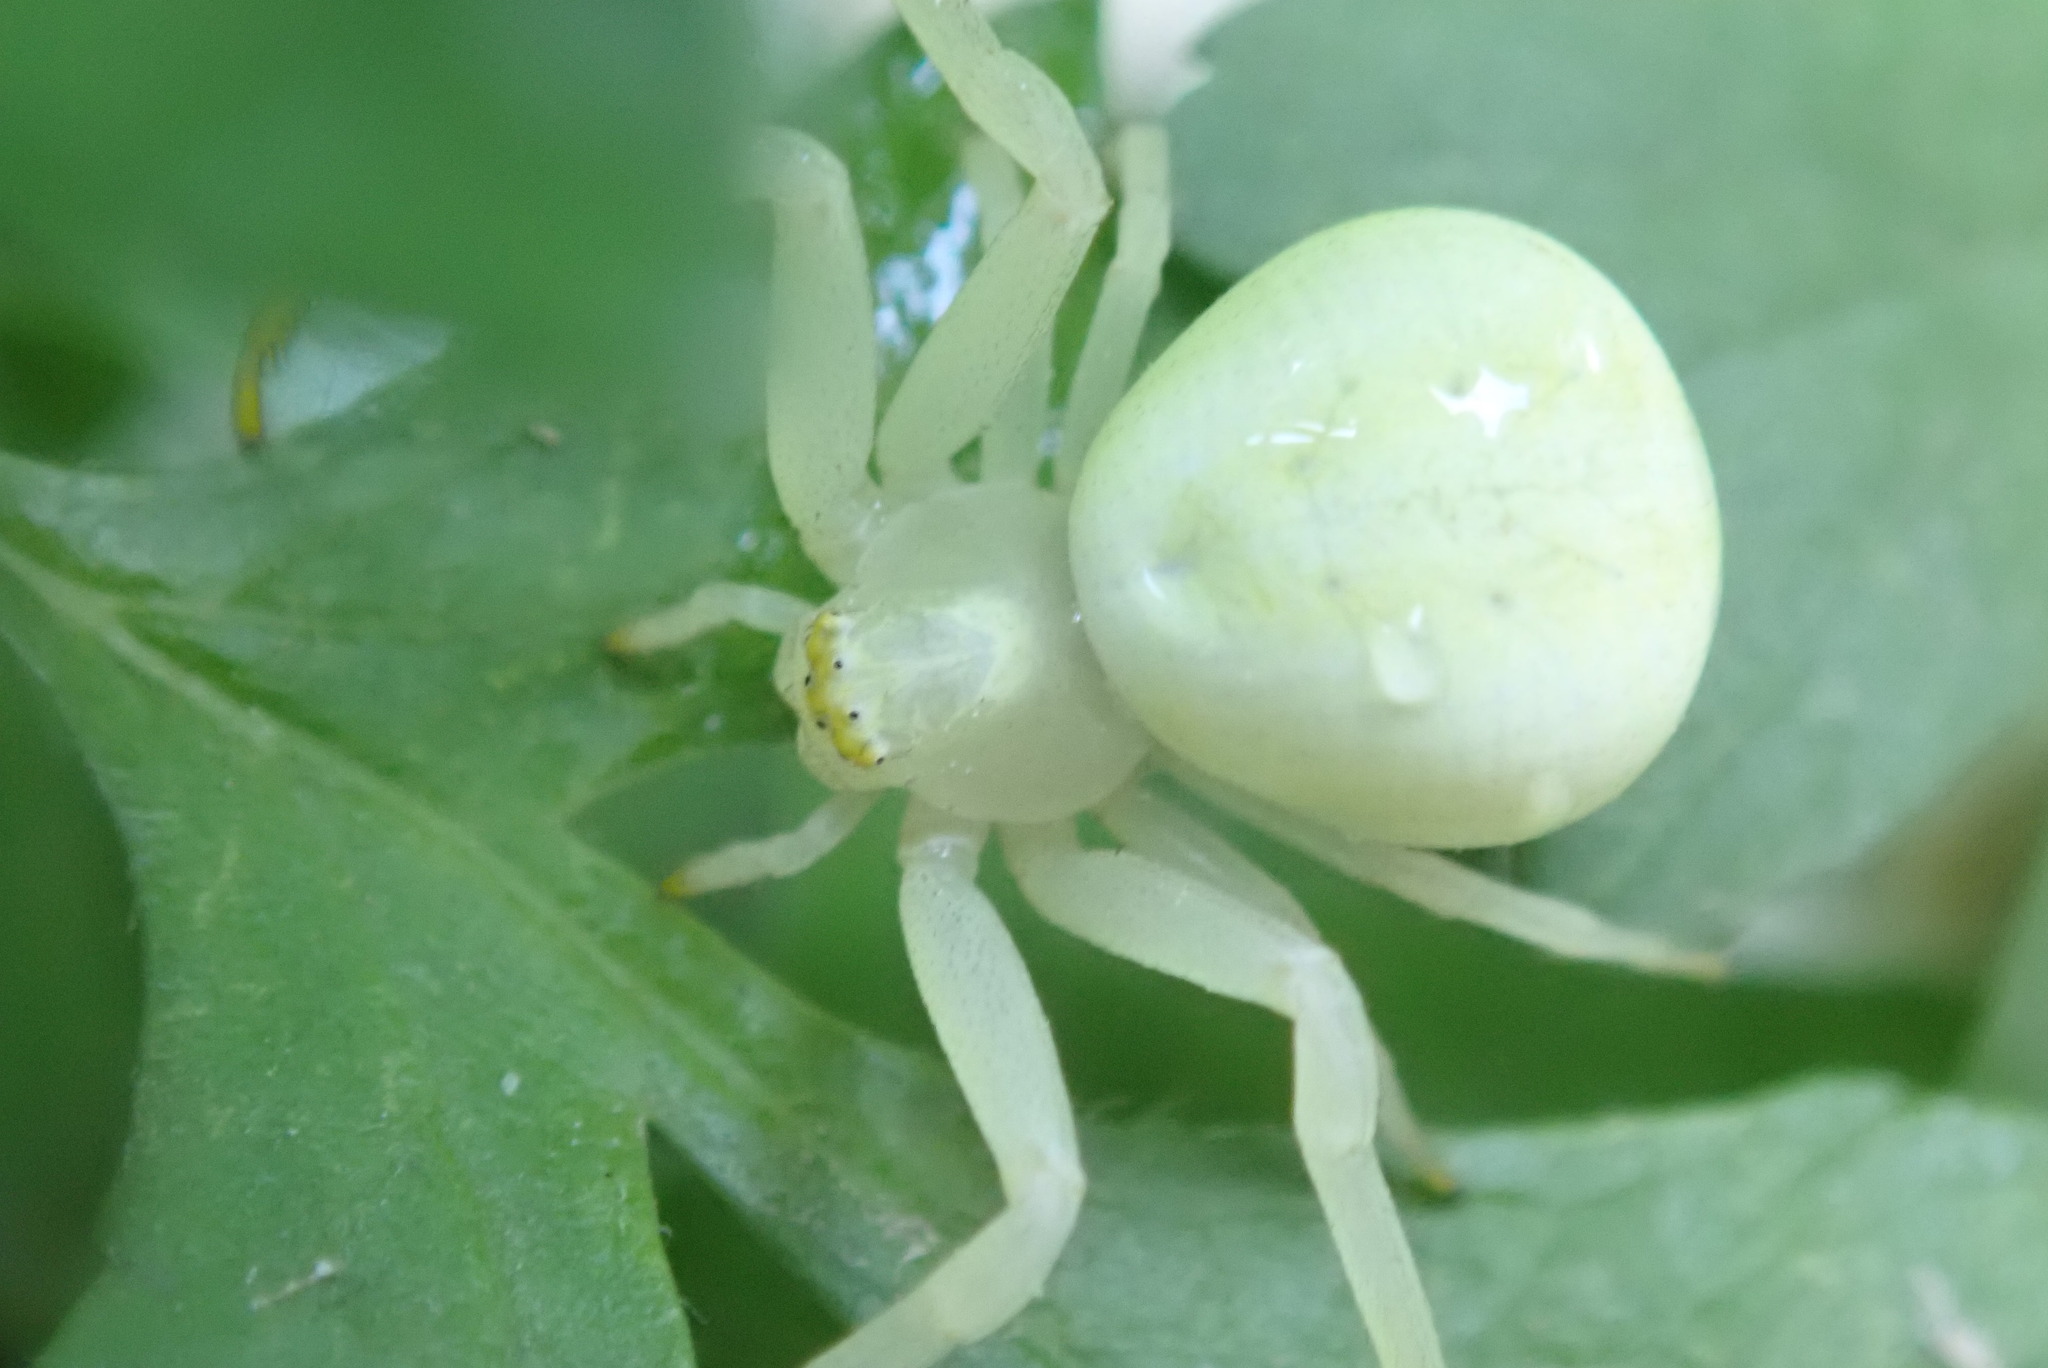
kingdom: Animalia
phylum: Arthropoda
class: Arachnida
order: Araneae
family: Thomisidae
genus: Misumena
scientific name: Misumena vatia
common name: Goldenrod crab spider
